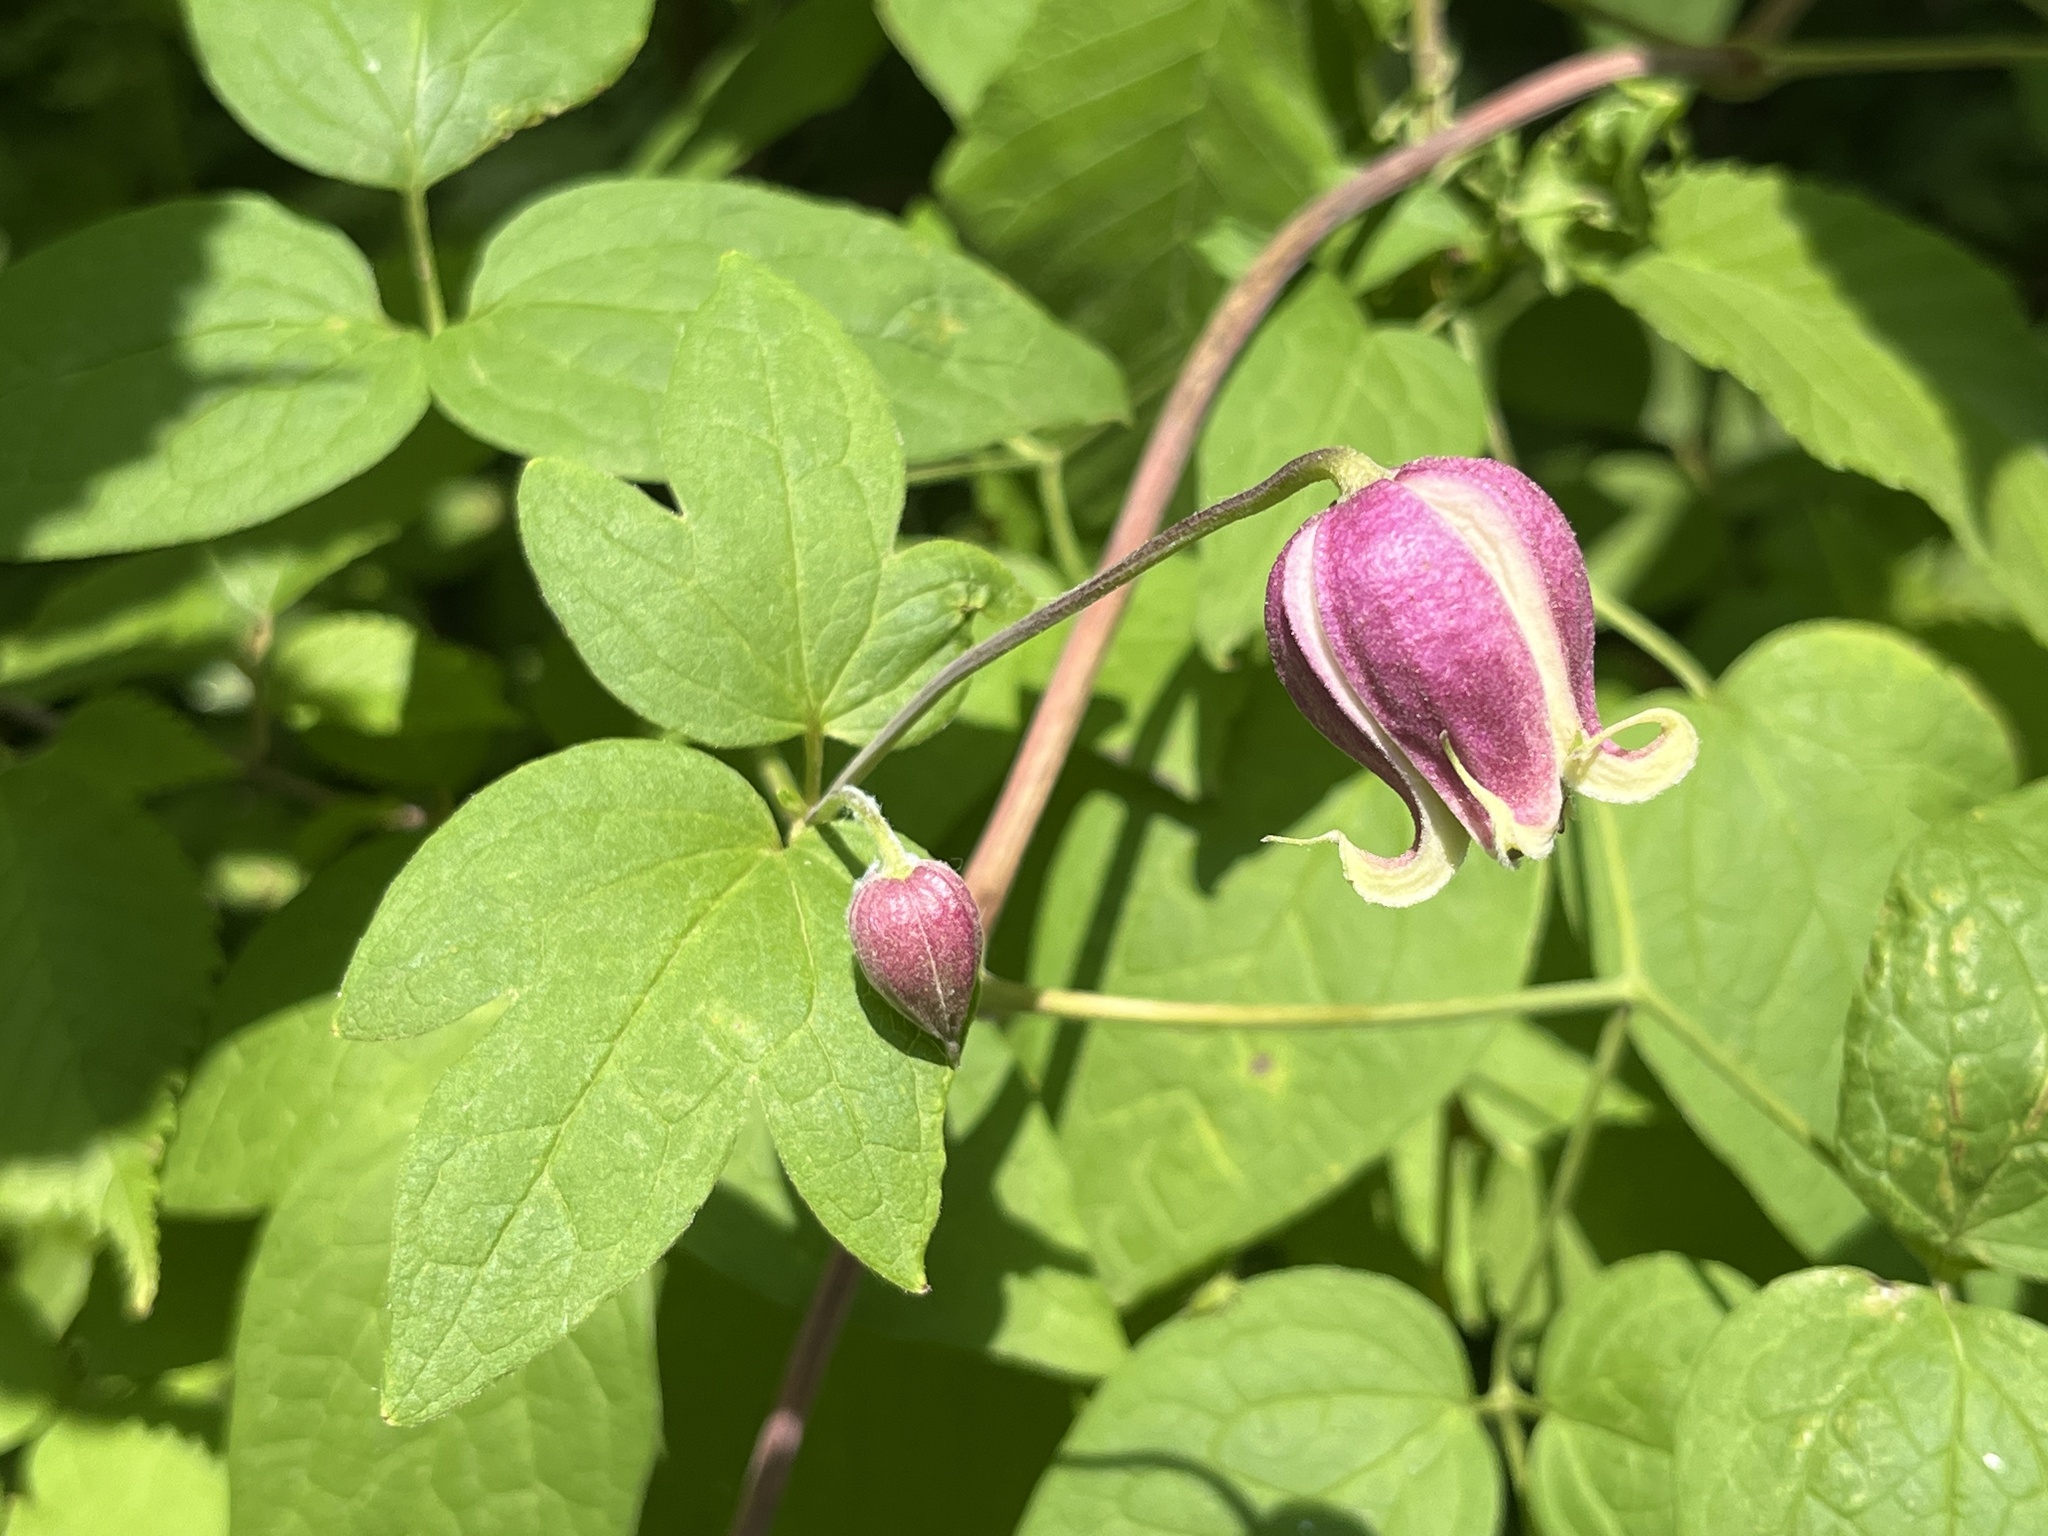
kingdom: Plantae
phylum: Tracheophyta
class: Magnoliopsida
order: Ranunculales
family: Ranunculaceae
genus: Clematis
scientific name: Clematis viorna
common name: Leather-flower
